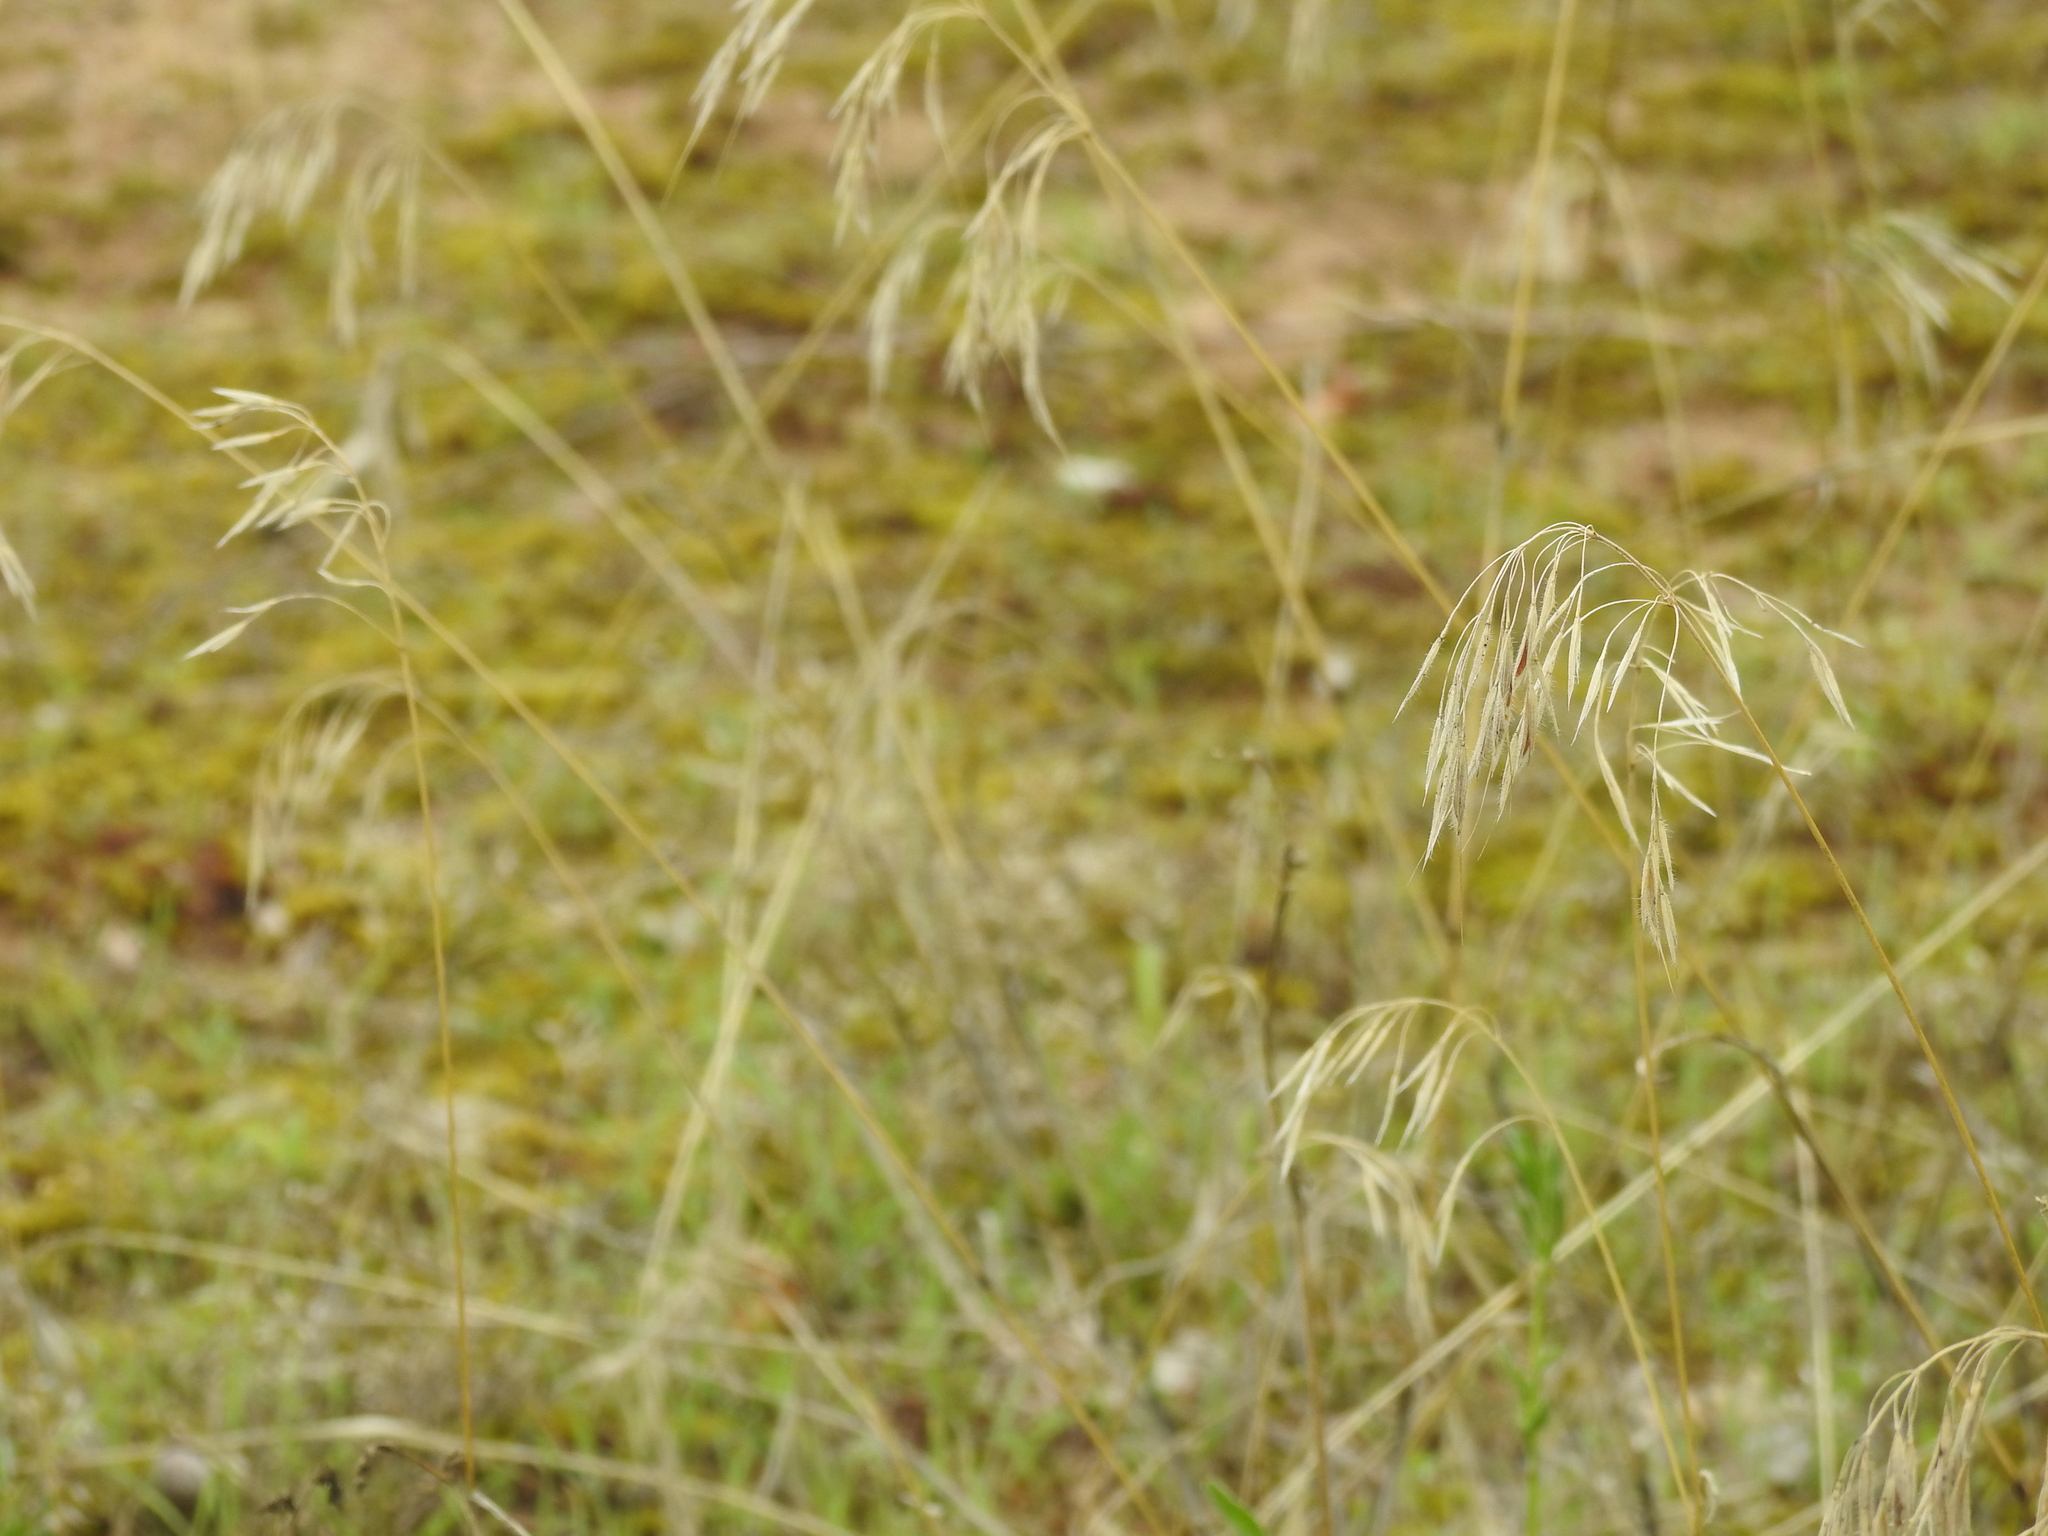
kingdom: Plantae
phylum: Tracheophyta
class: Liliopsida
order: Poales
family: Poaceae
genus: Bromus
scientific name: Bromus tectorum
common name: Cheatgrass
